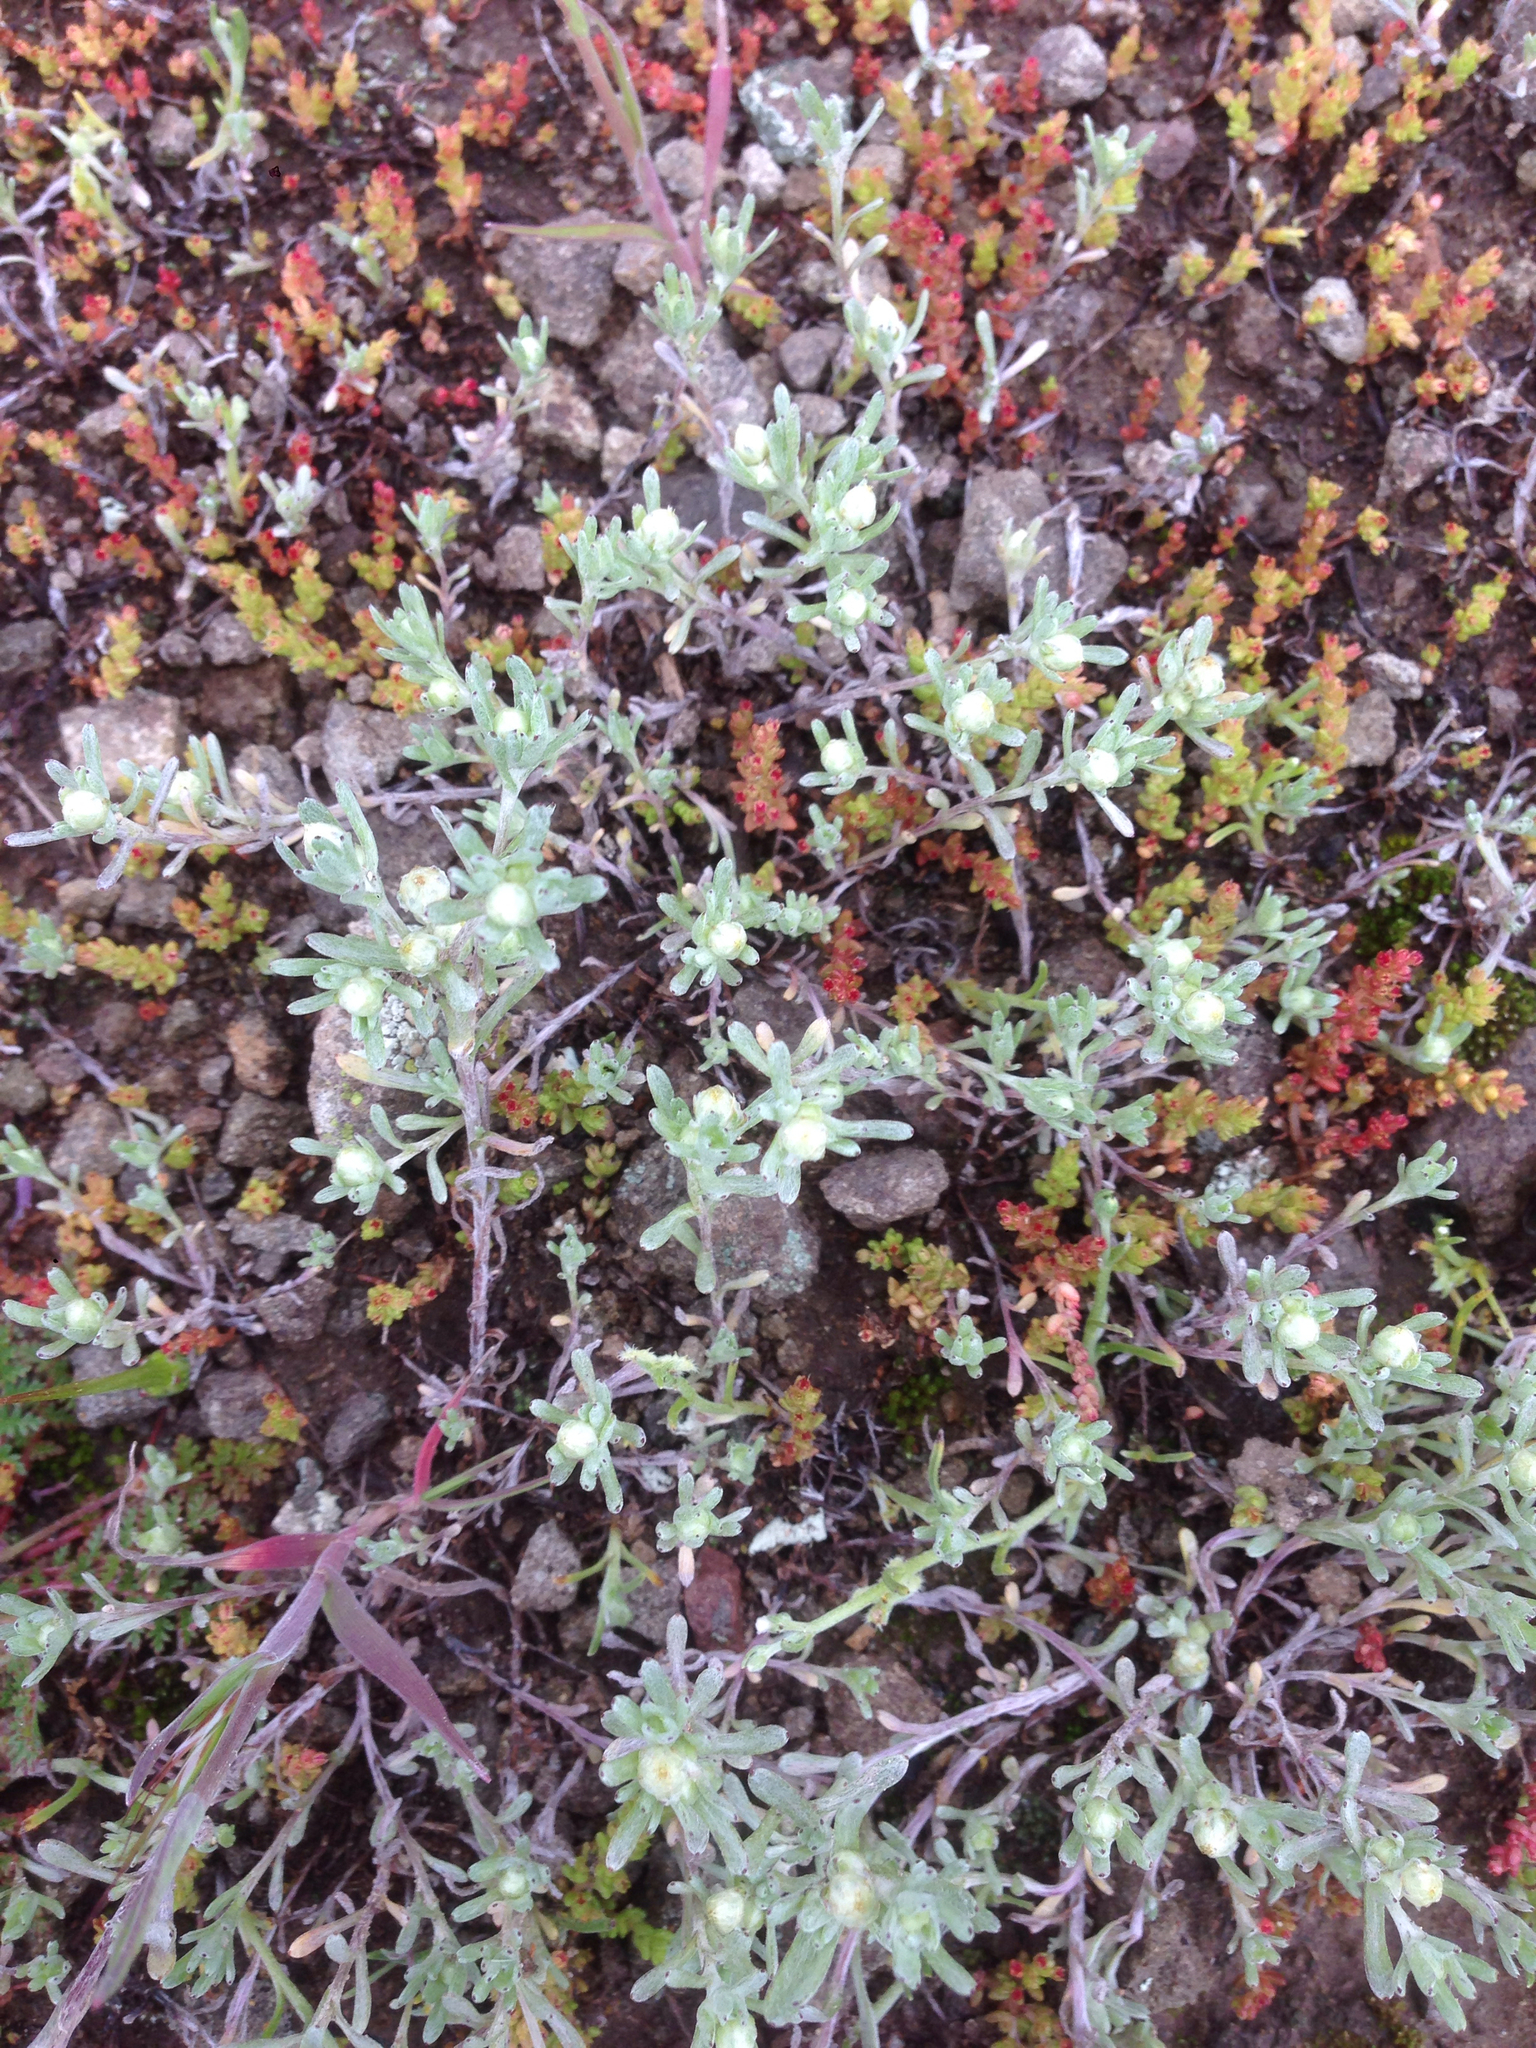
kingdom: Plantae
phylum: Tracheophyta
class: Magnoliopsida
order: Asterales
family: Asteraceae
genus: Stylocline
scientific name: Stylocline gnaphaloides
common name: Everlasting nest-straw
